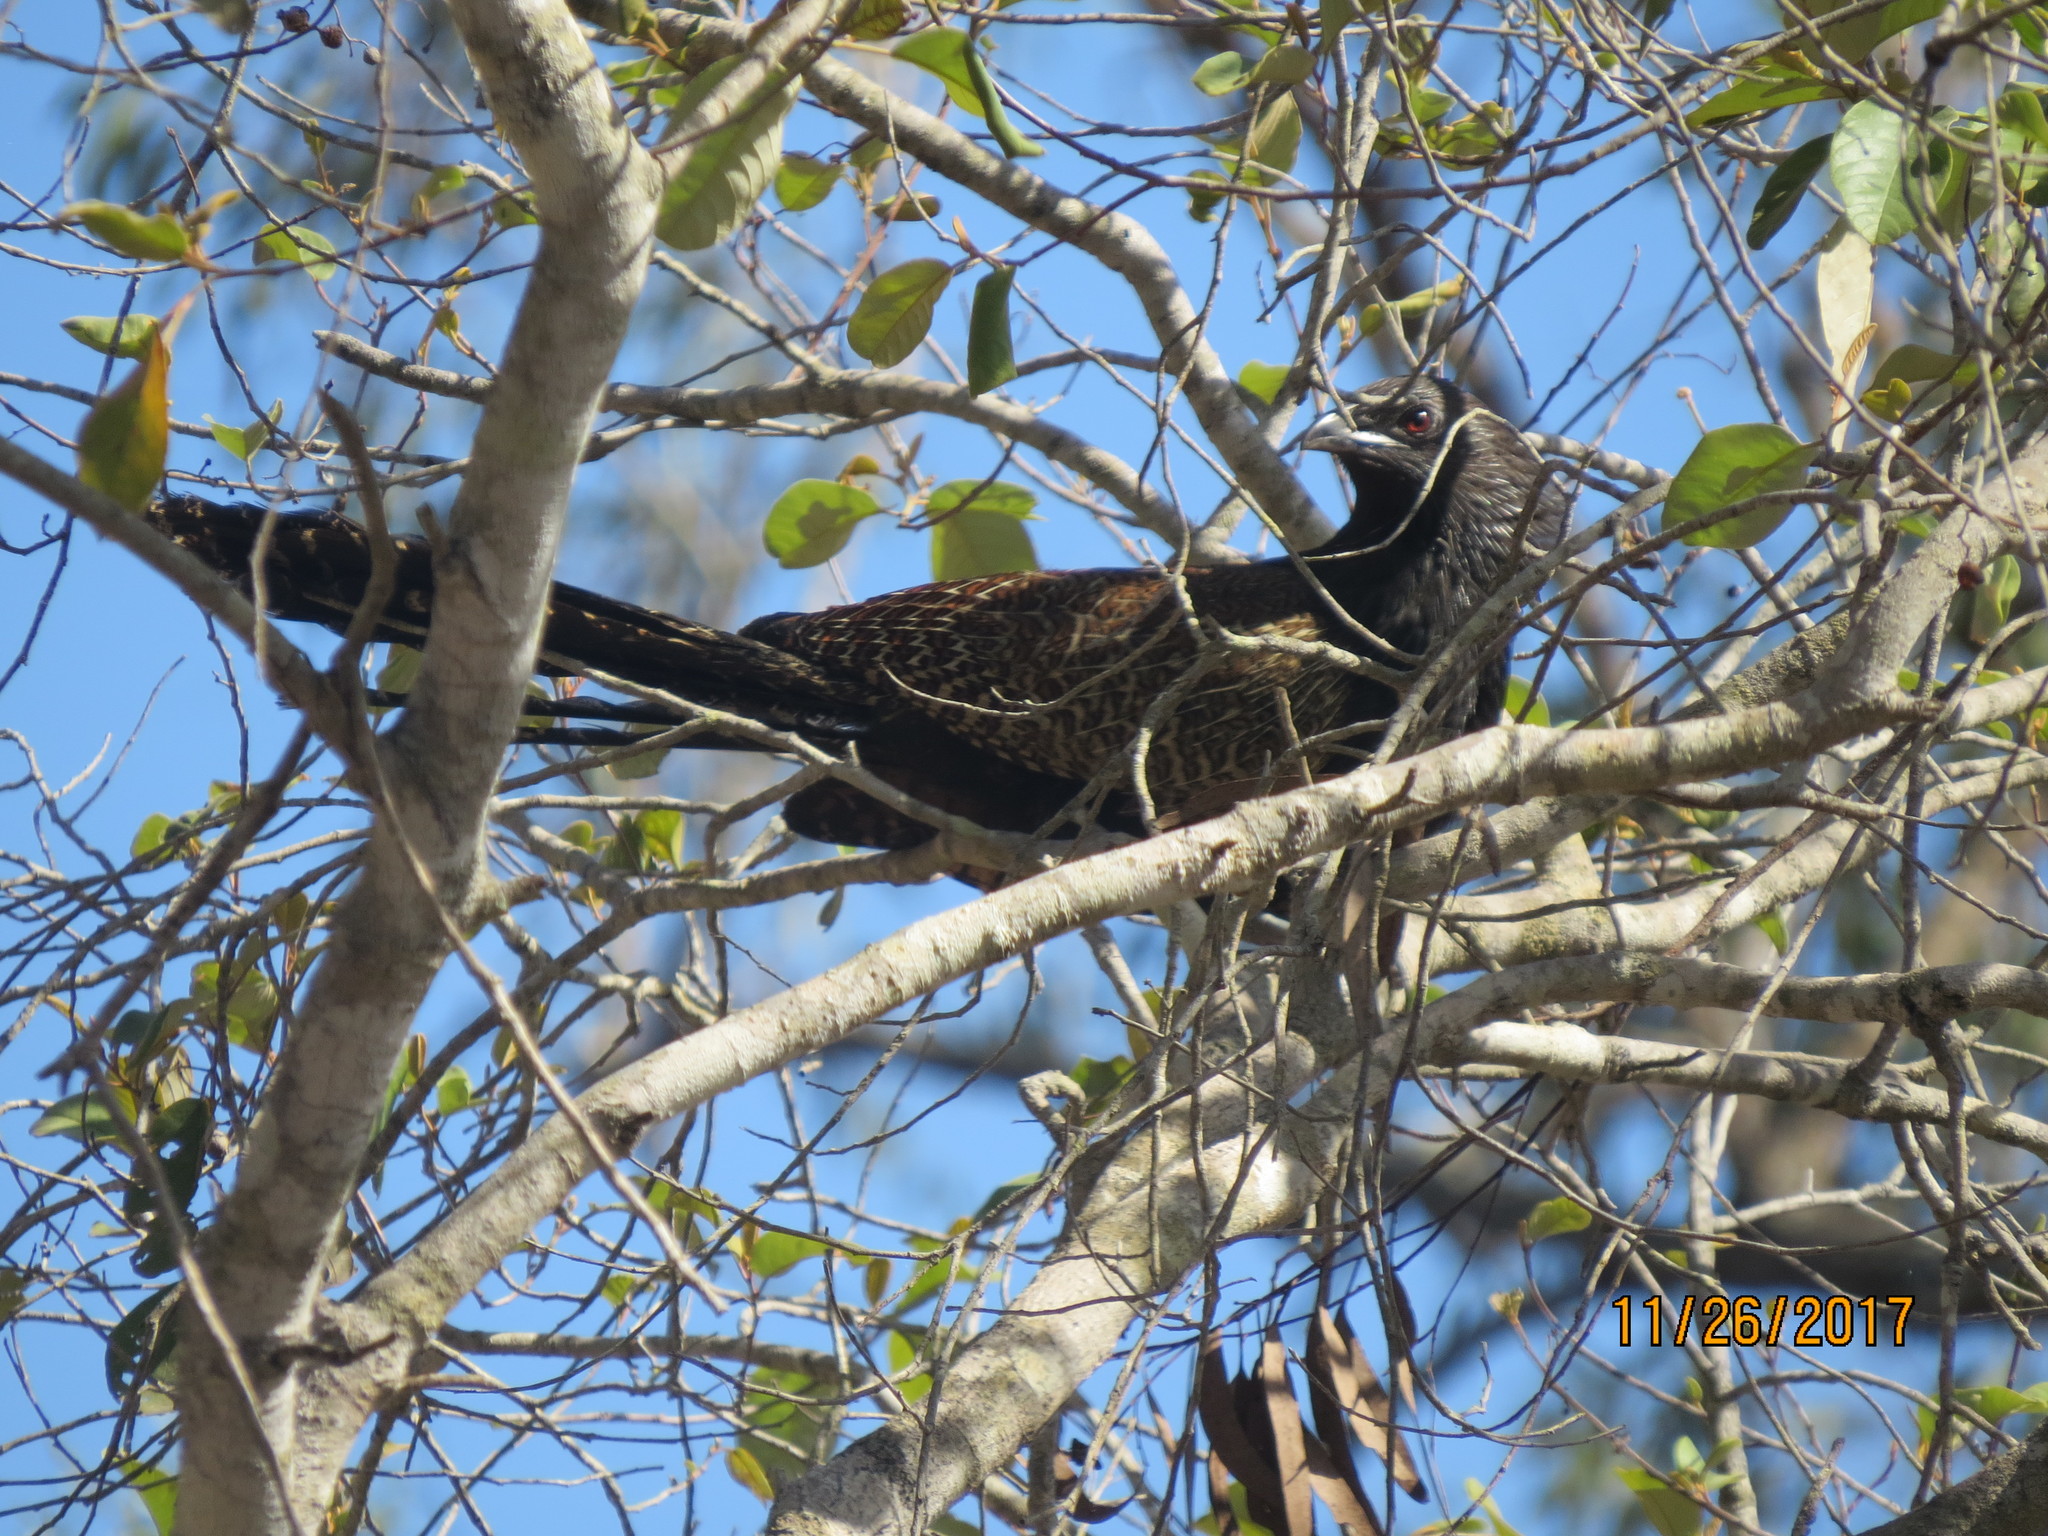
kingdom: Animalia
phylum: Chordata
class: Aves
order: Cuculiformes
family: Cuculidae
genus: Centropus
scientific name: Centropus phasianinus
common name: Pheasant coucal
